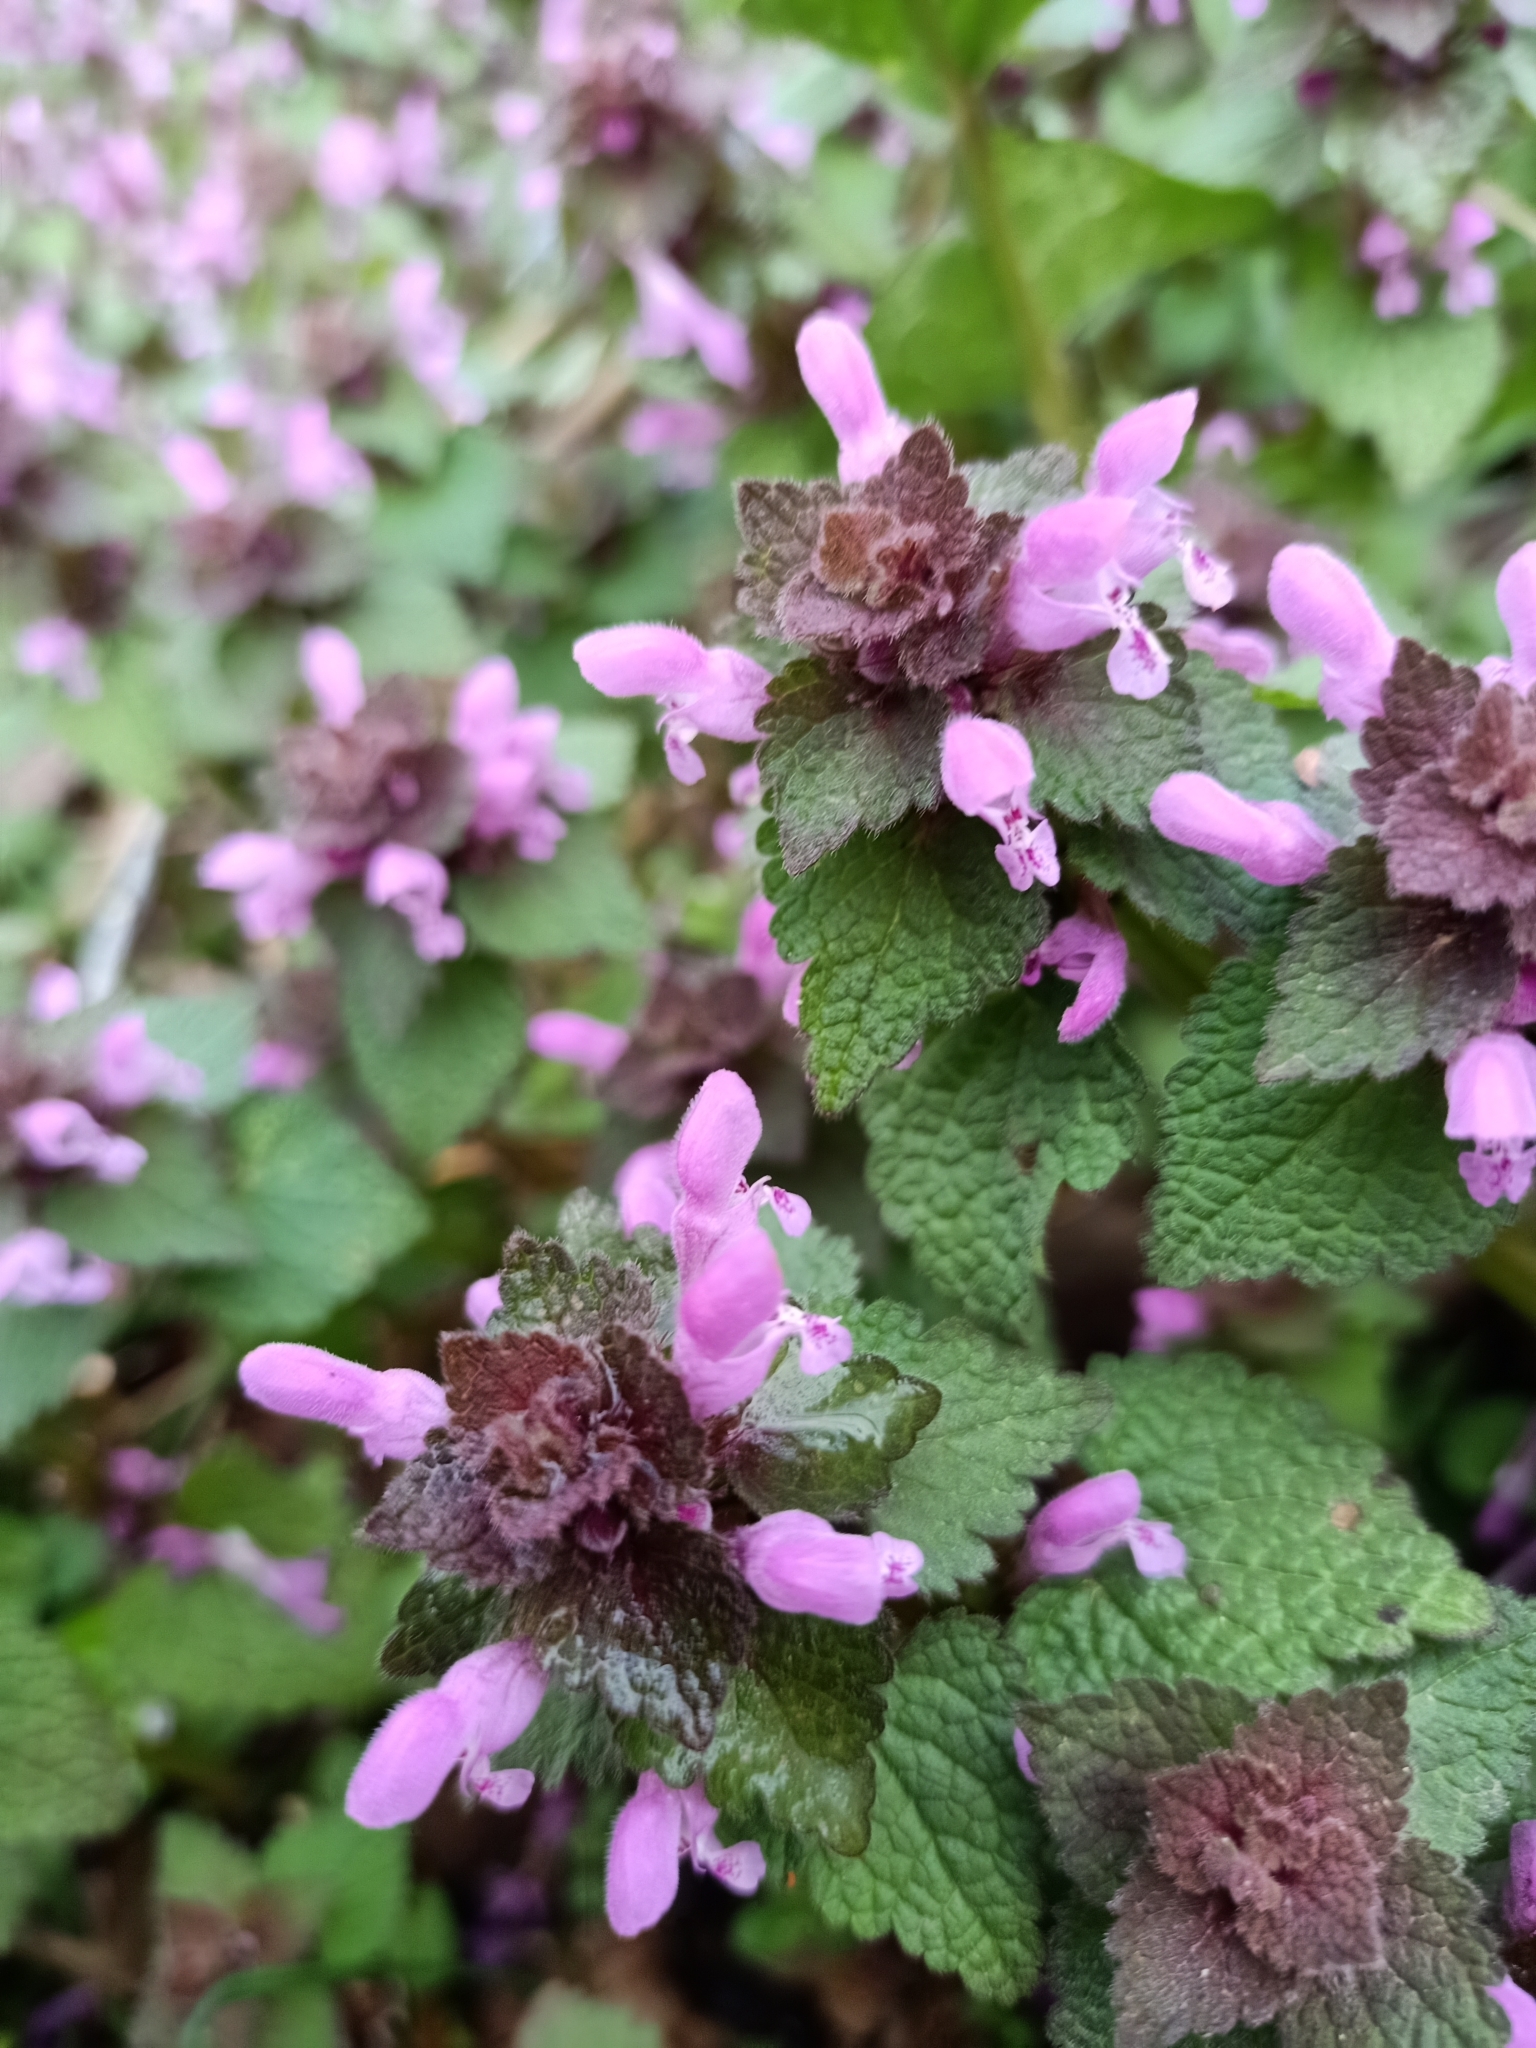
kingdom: Plantae
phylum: Tracheophyta
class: Magnoliopsida
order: Lamiales
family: Lamiaceae
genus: Lamium
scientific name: Lamium purpureum
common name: Red dead-nettle
